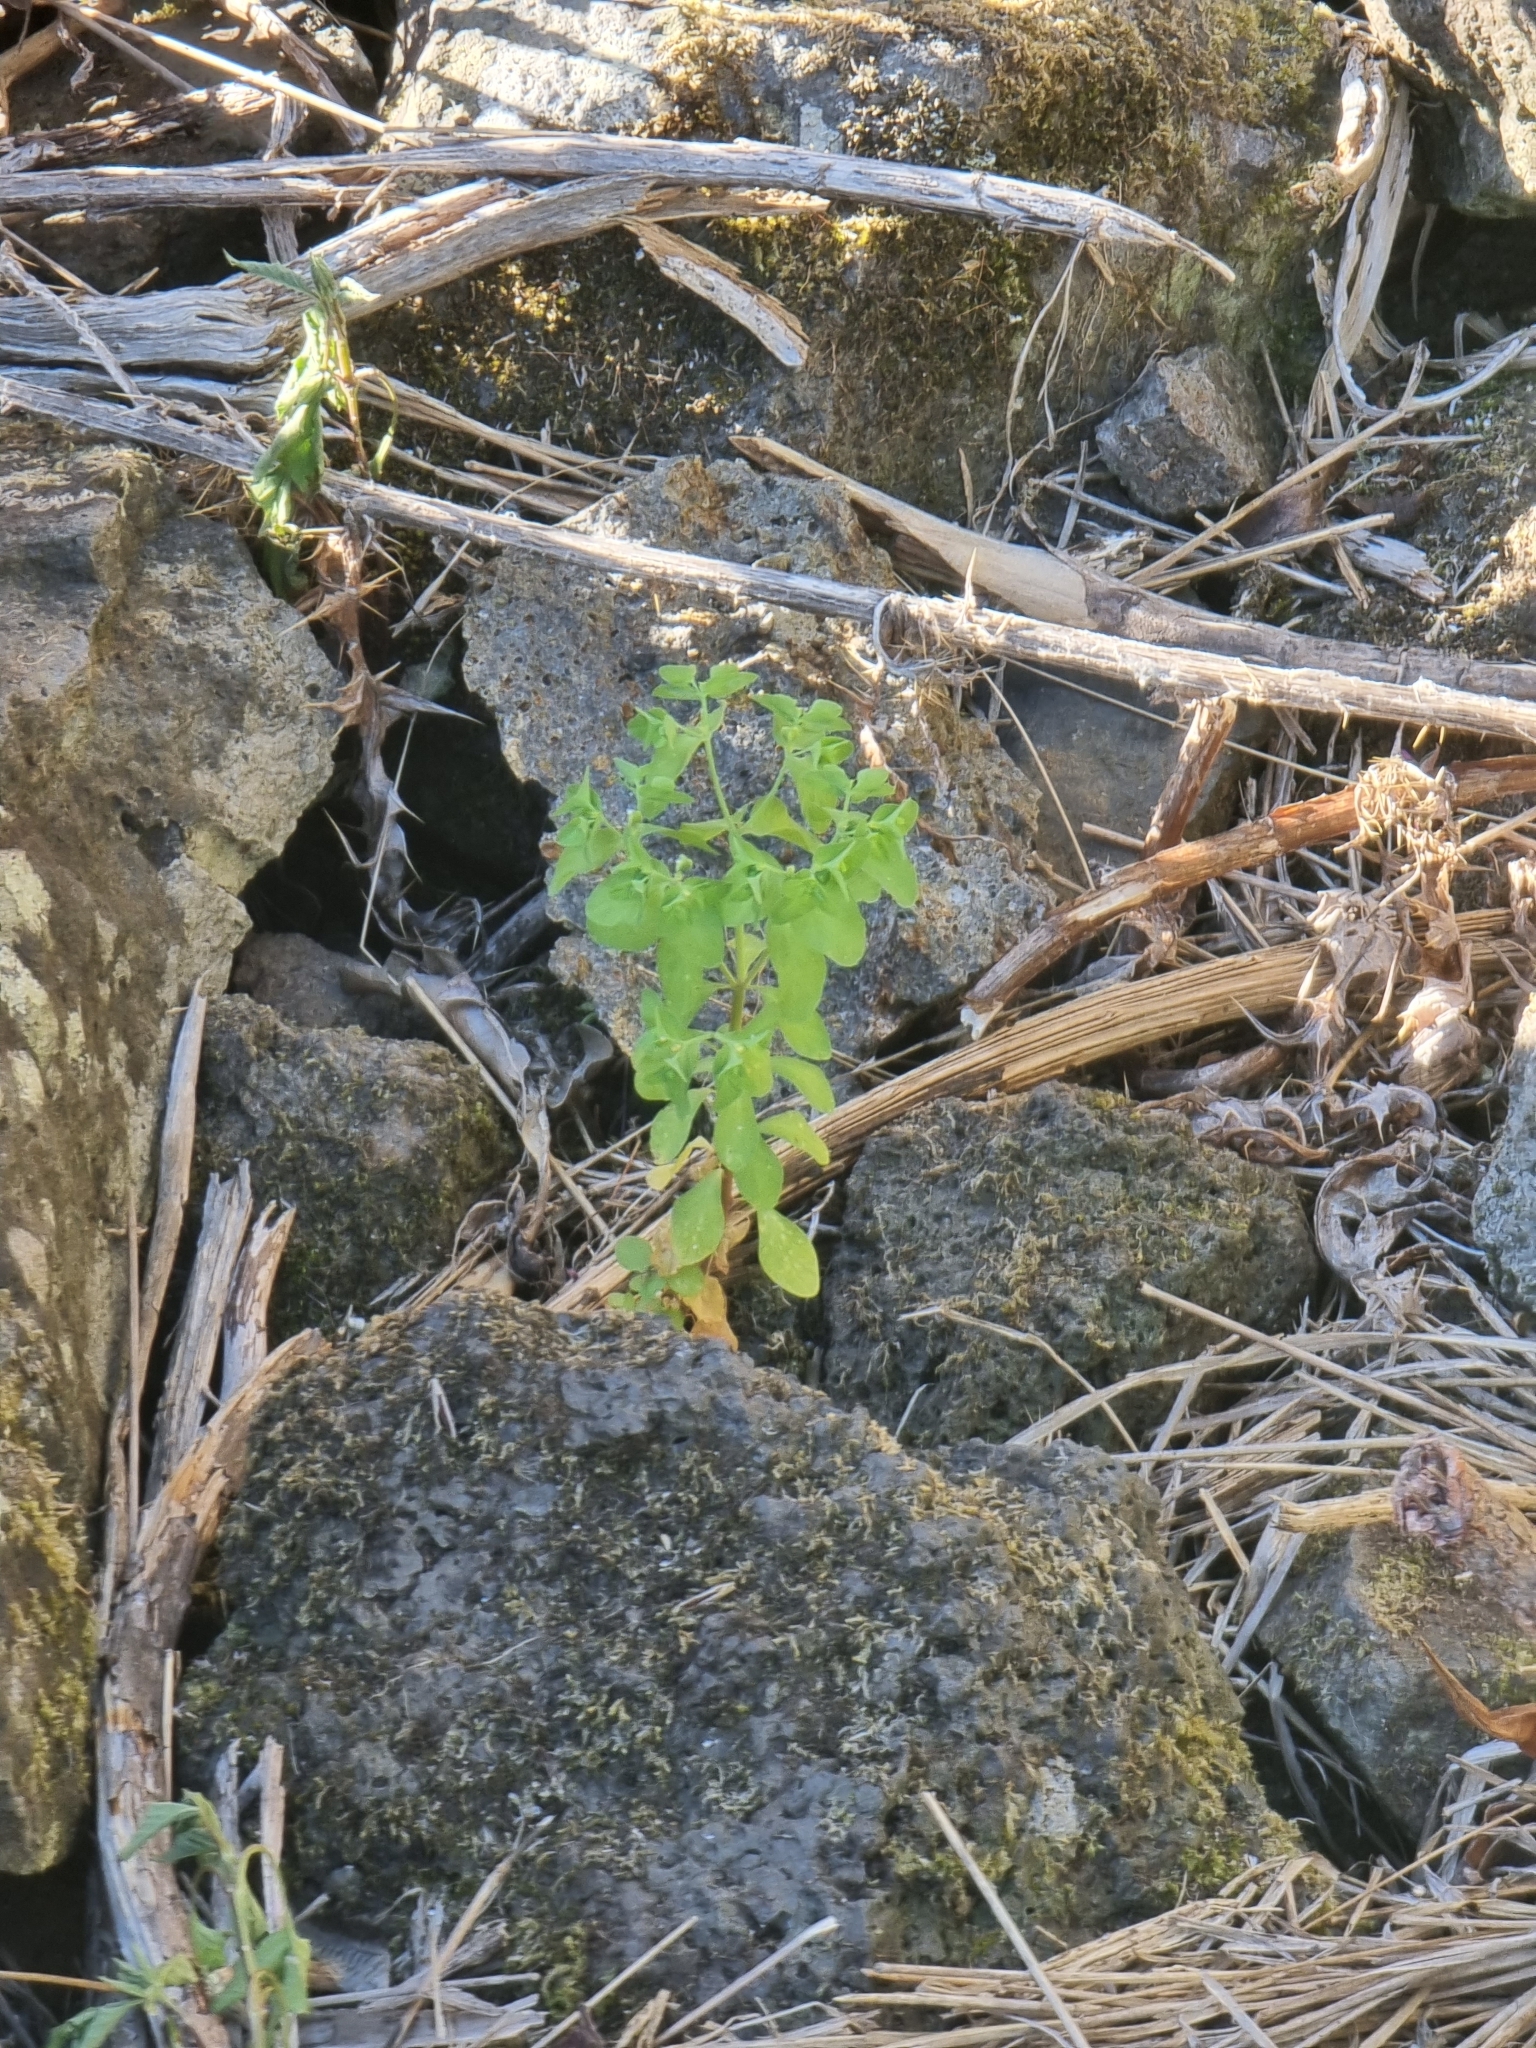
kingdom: Plantae
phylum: Tracheophyta
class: Magnoliopsida
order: Malpighiales
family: Euphorbiaceae
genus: Euphorbia
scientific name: Euphorbia peplus
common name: Petty spurge
